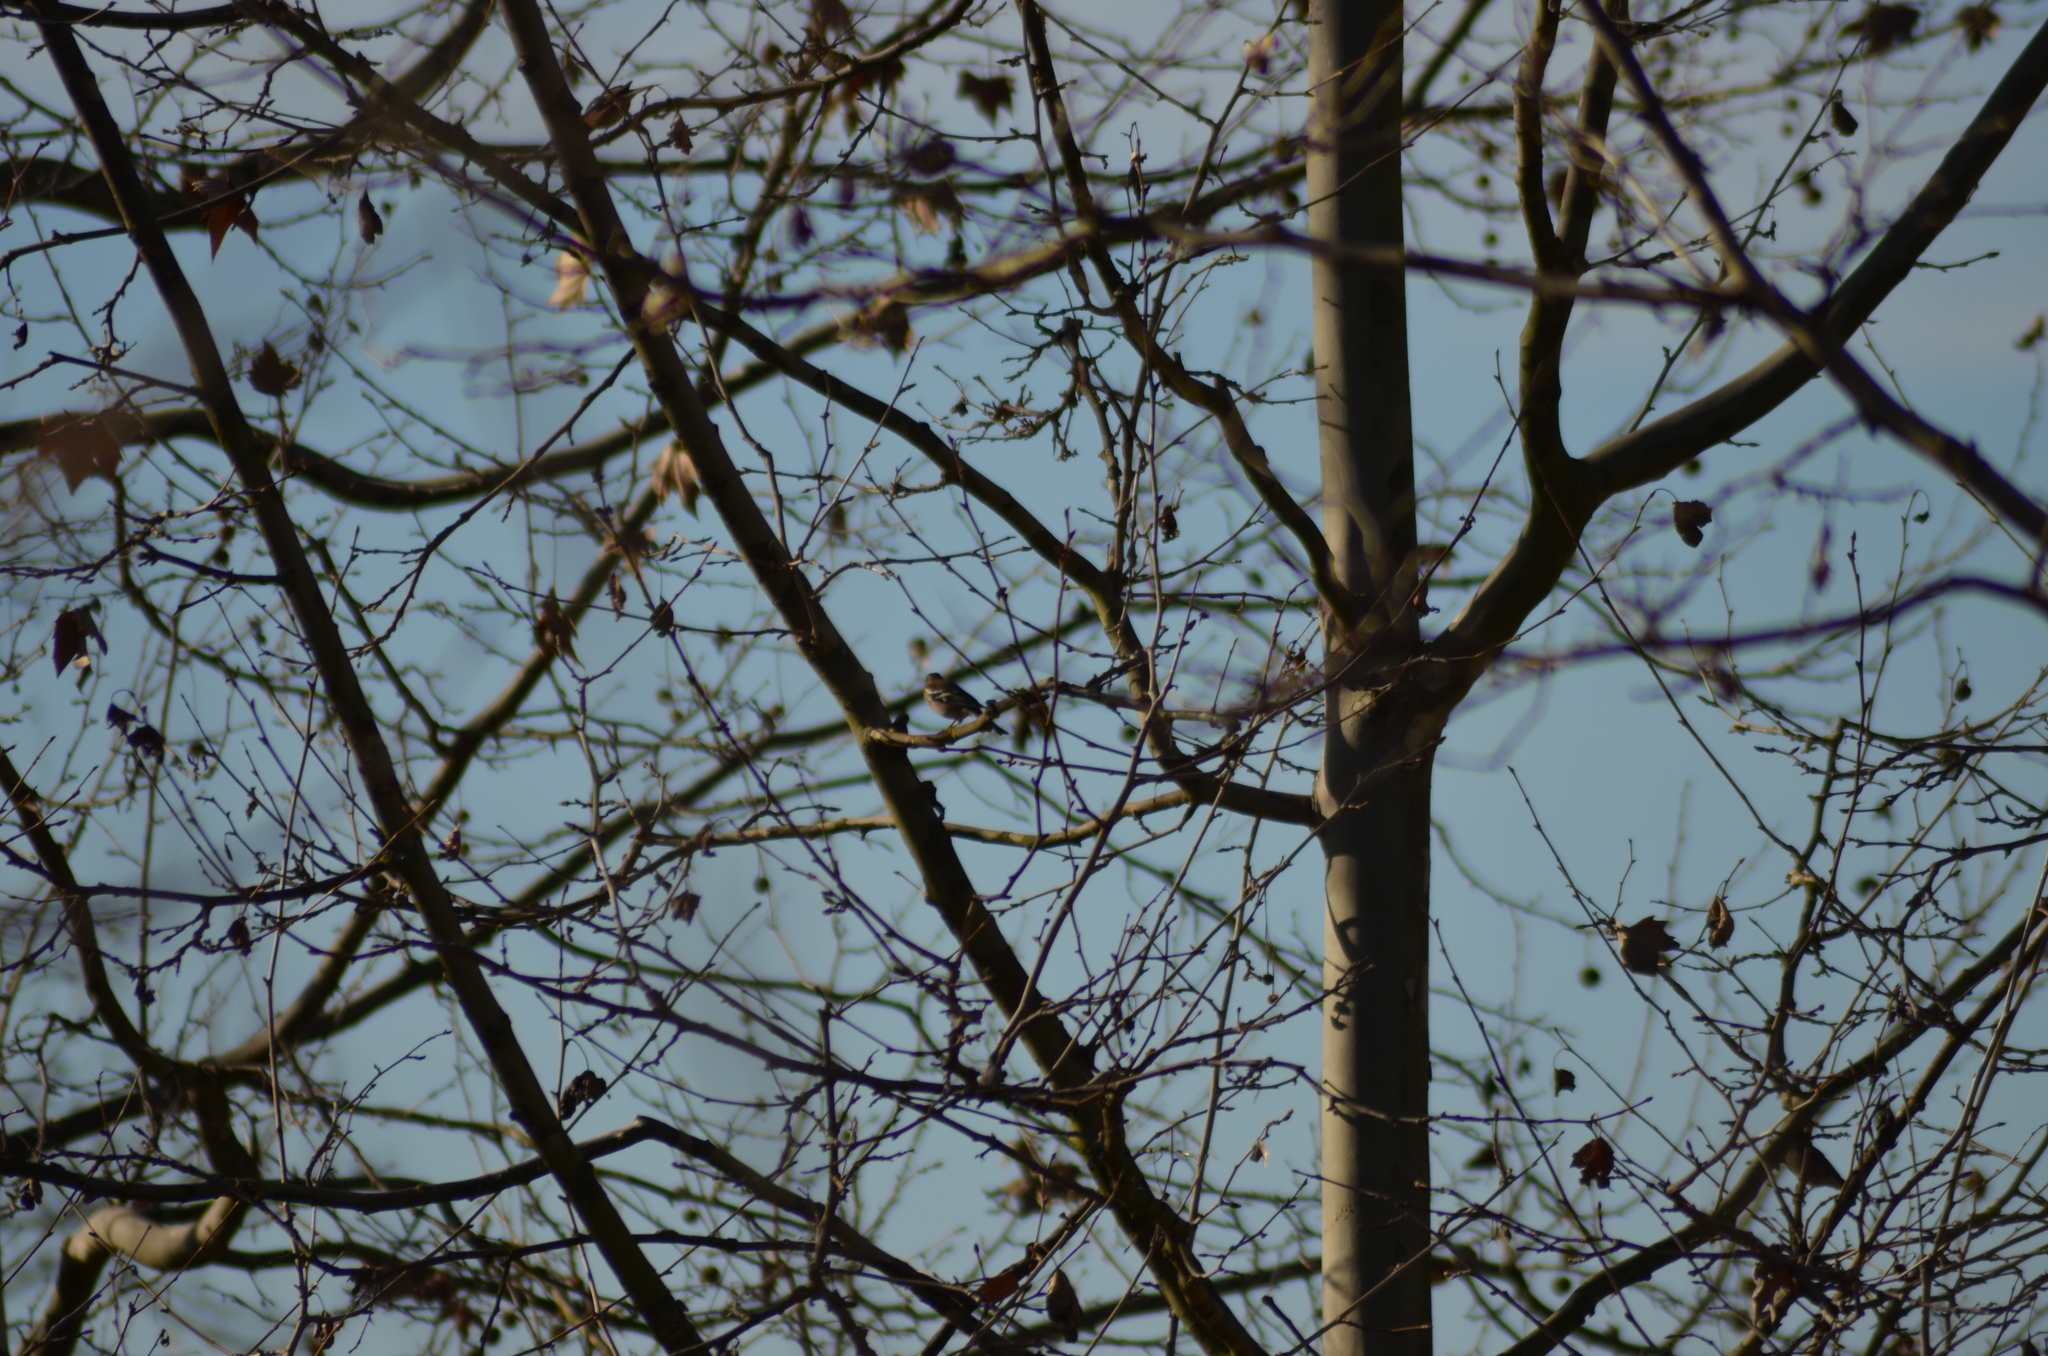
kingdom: Animalia
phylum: Chordata
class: Aves
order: Passeriformes
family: Fringillidae
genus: Fringilla
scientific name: Fringilla coelebs
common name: Common chaffinch
